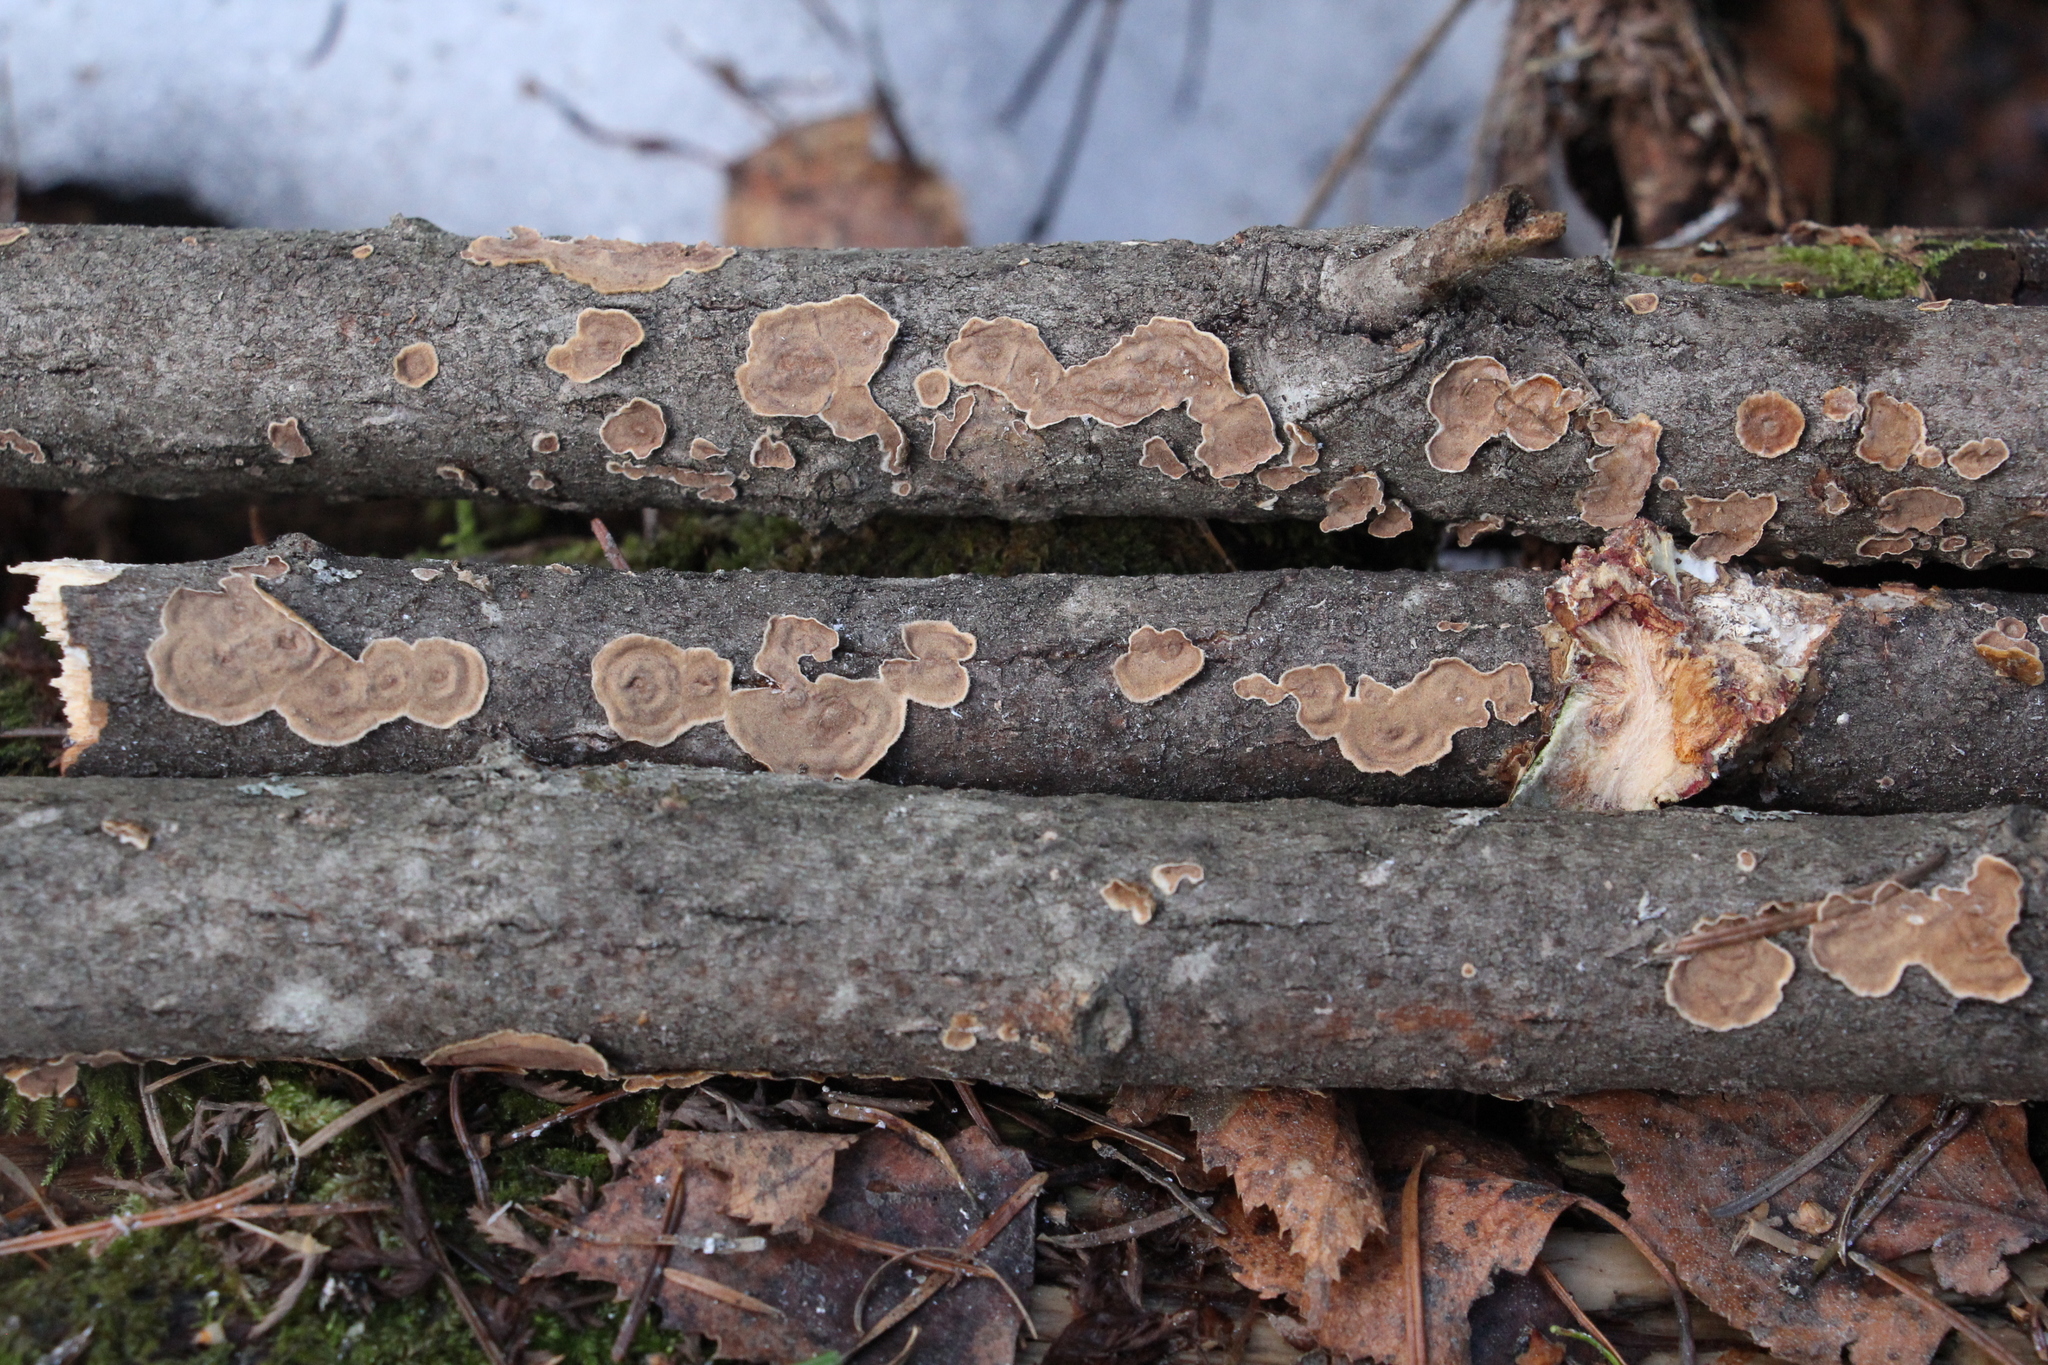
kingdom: Fungi
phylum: Basidiomycota
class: Agaricomycetes
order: Hymenochaetales
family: Hymenochaetaceae
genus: Hydnoporia
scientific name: Hydnoporia tabacina
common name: Willow glue
